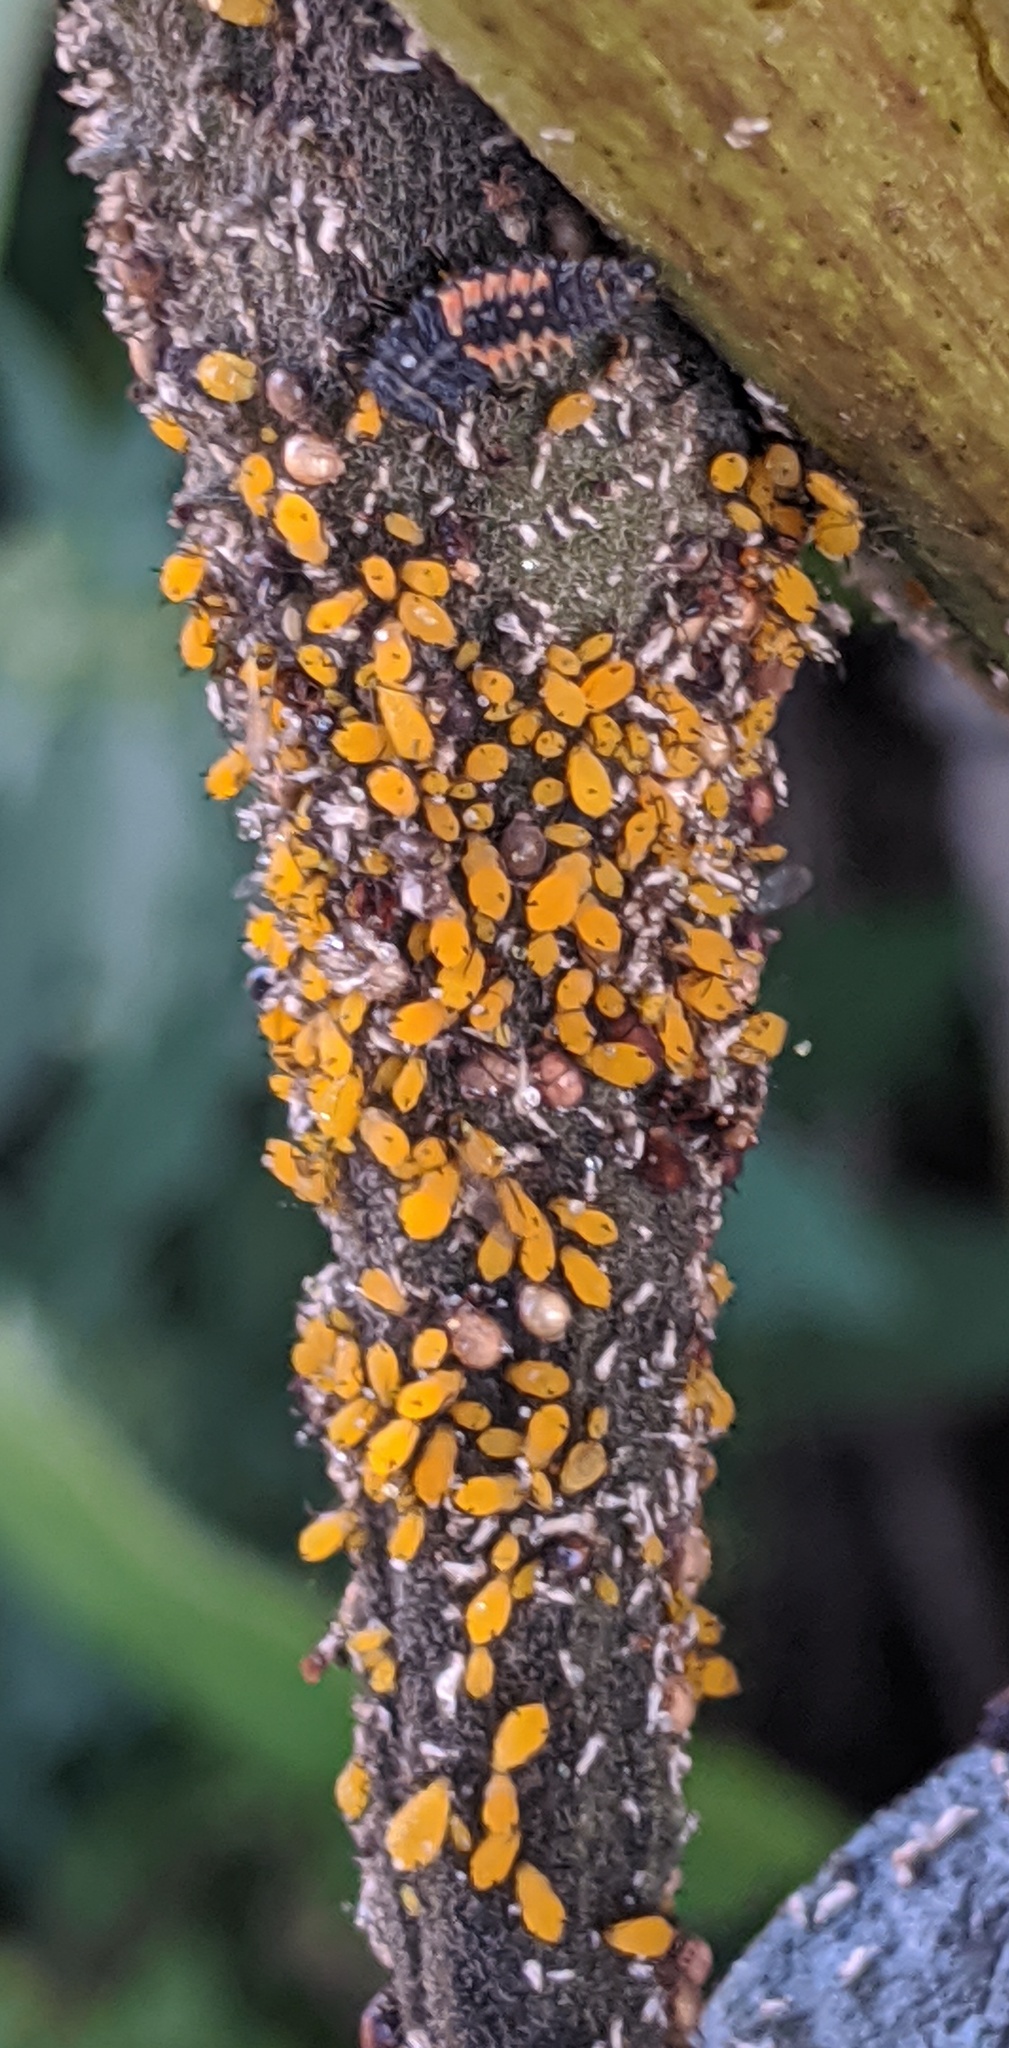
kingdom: Animalia
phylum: Arthropoda
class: Insecta
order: Coleoptera
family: Coccinellidae
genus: Harmonia
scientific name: Harmonia axyridis
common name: Harlequin ladybird
